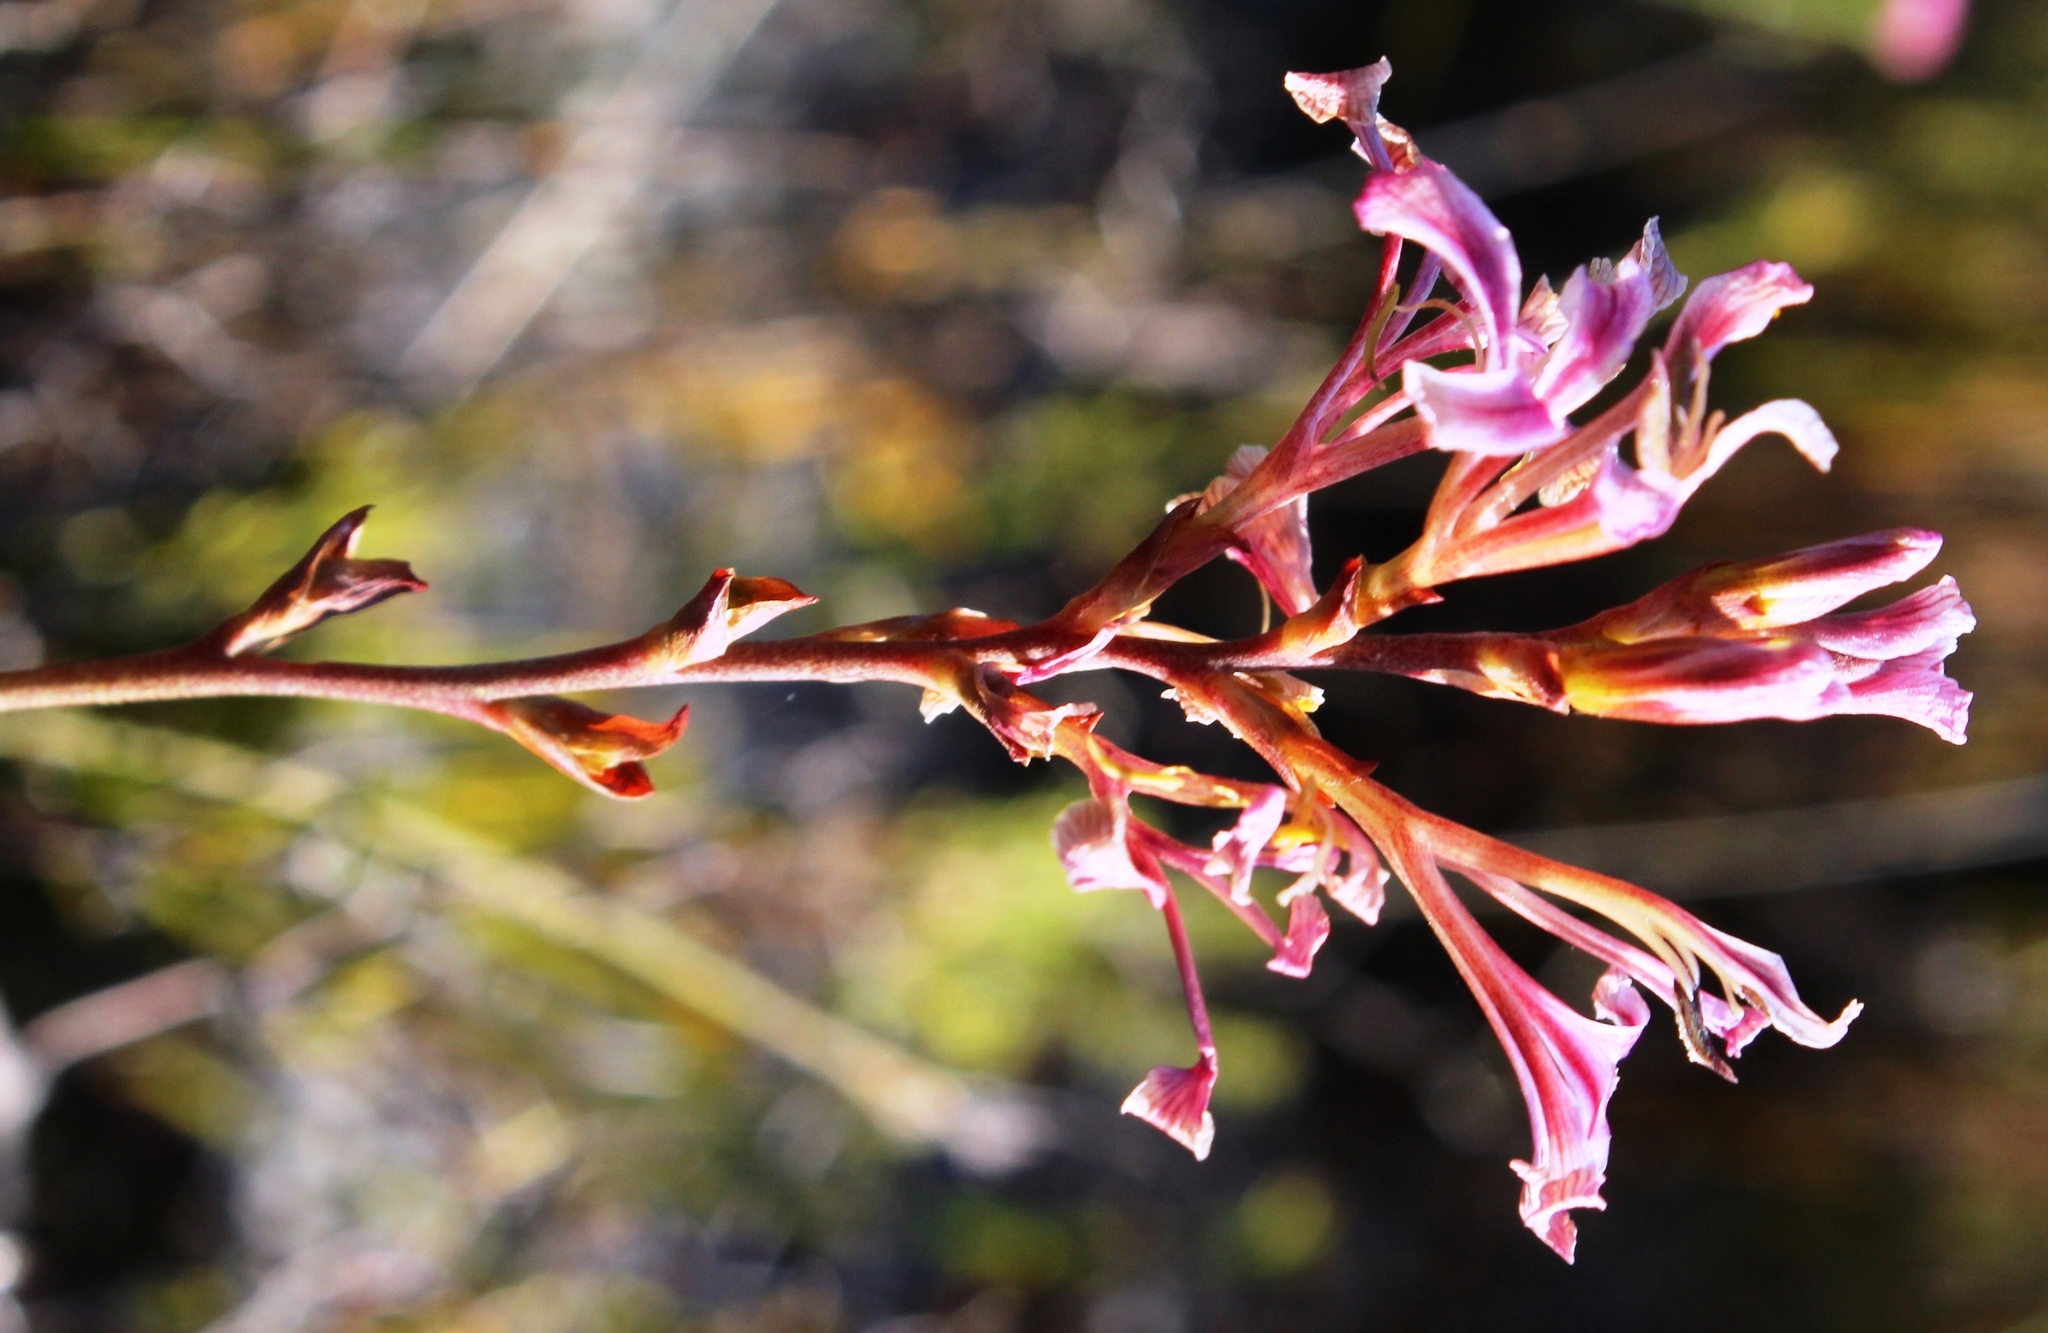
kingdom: Plantae
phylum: Tracheophyta
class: Liliopsida
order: Asparagales
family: Iridaceae
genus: Tritoniopsis
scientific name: Tritoniopsis dodii
